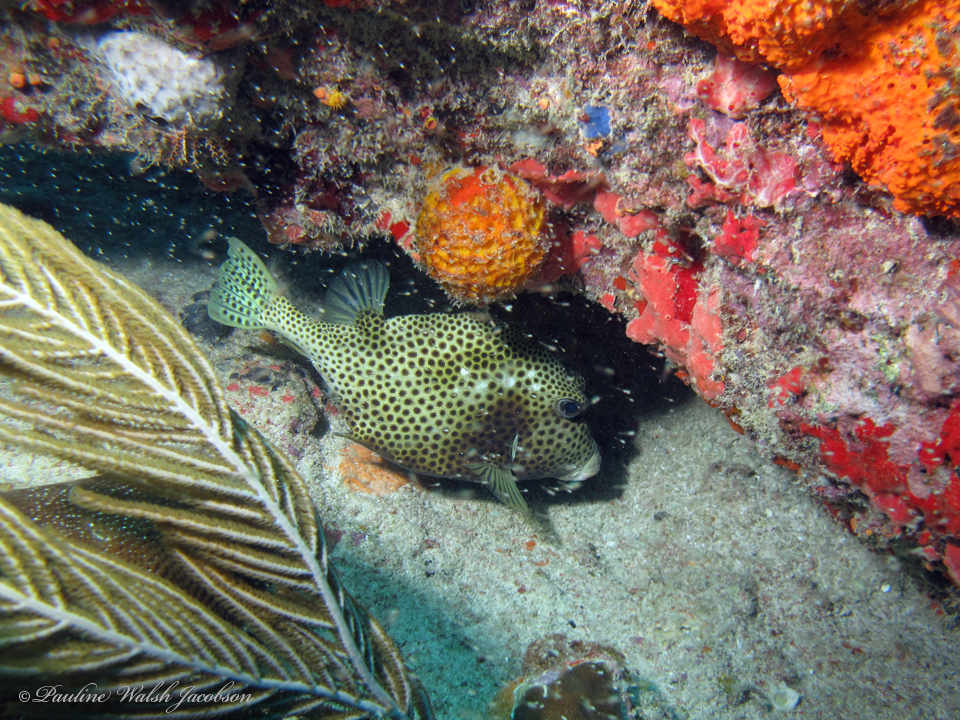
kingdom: Animalia
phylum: Chordata
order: Tetraodontiformes
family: Ostraciidae
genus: Lactophrys
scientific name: Lactophrys bicaudalis
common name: Spotted trunkfish
